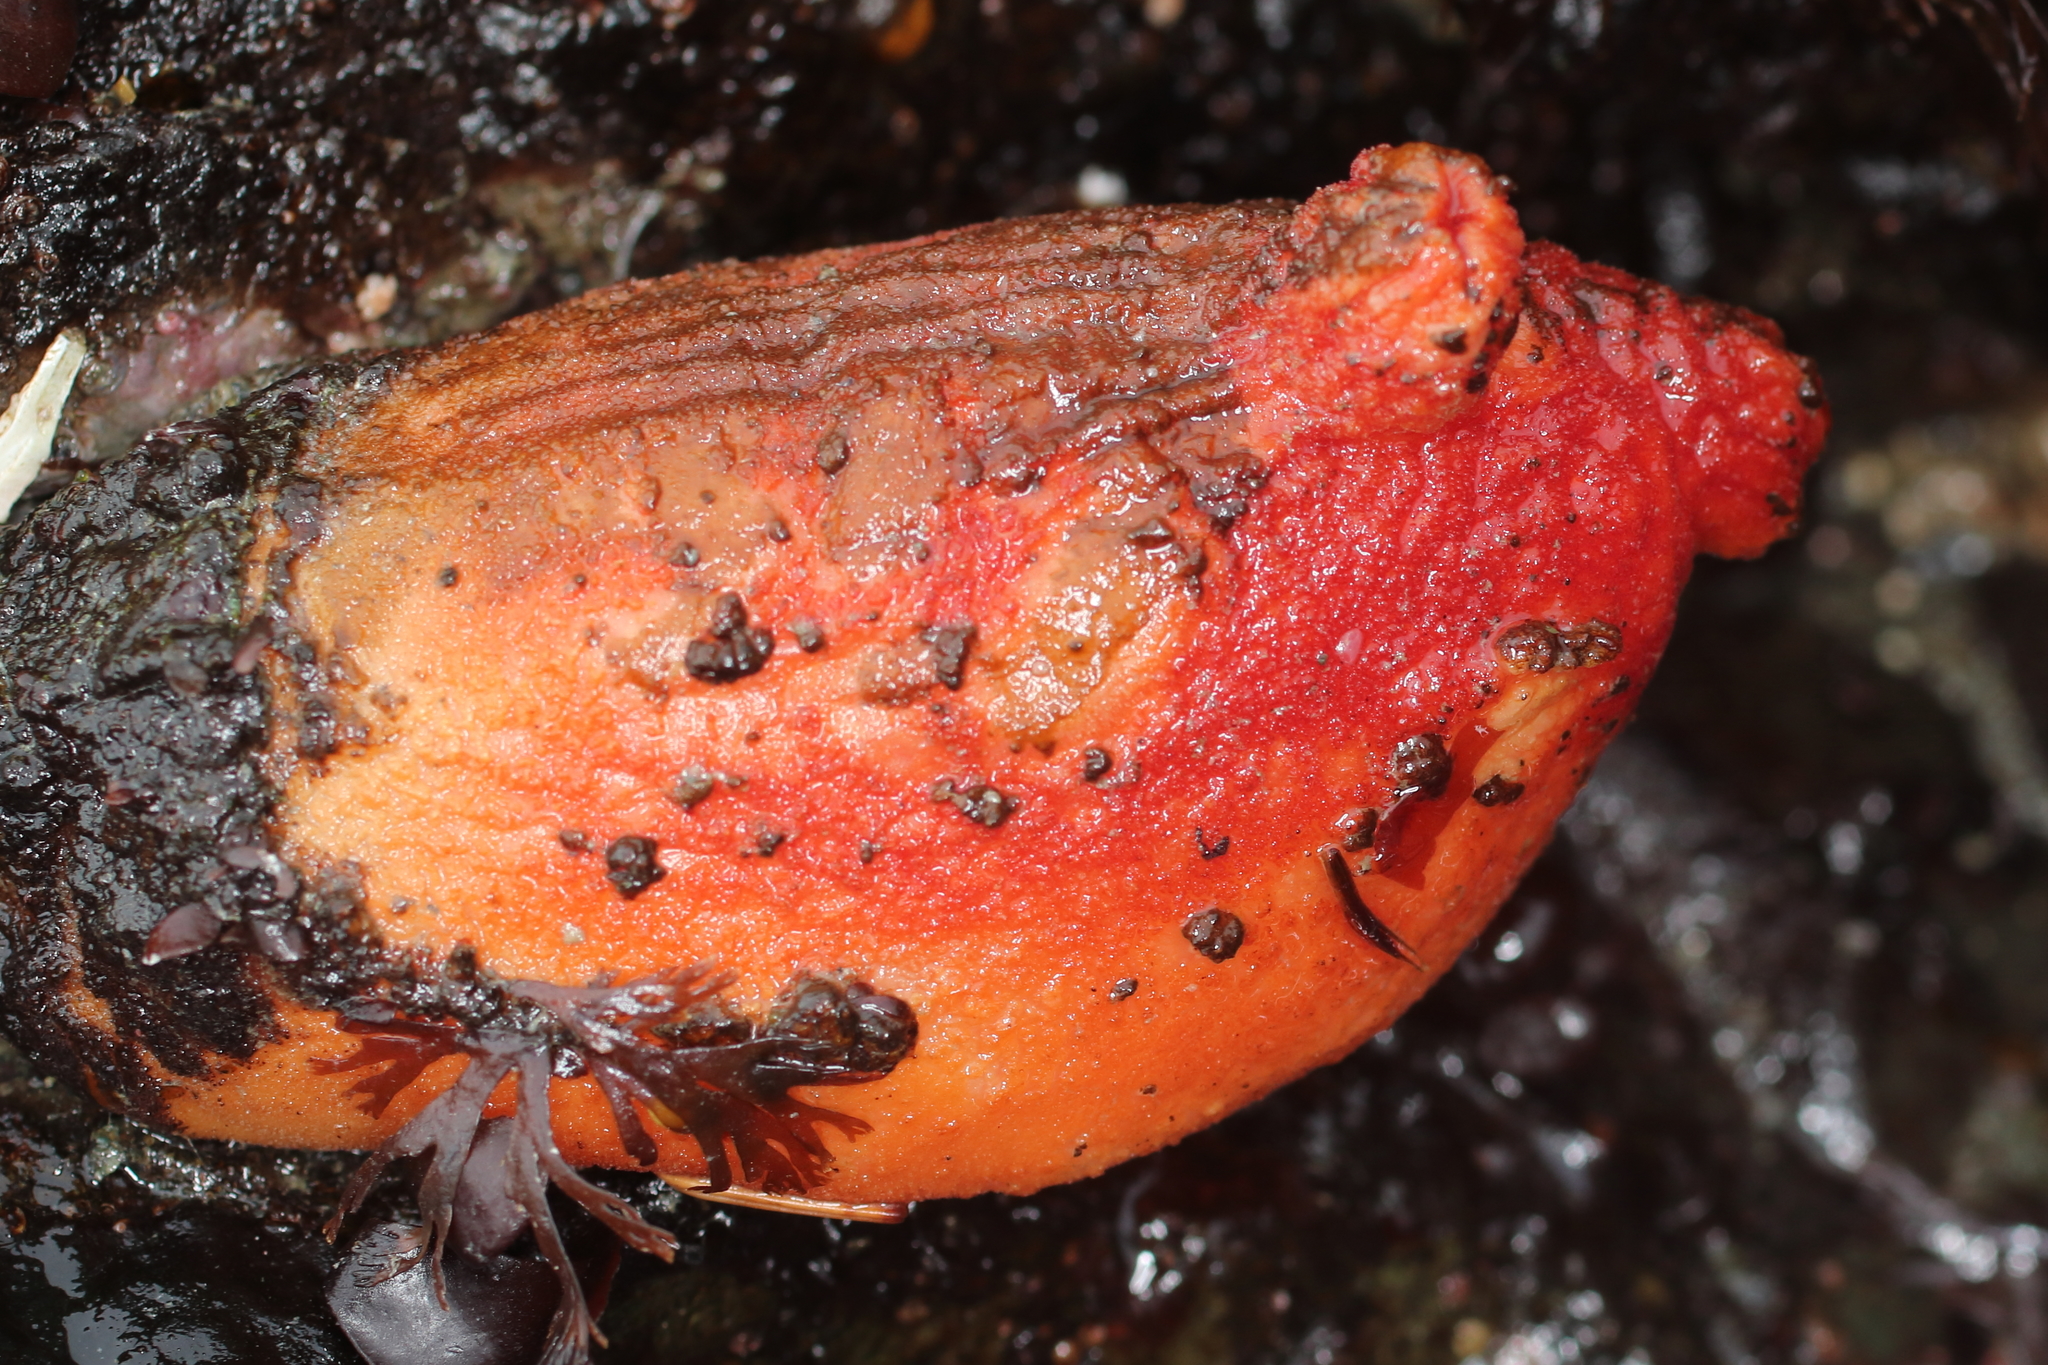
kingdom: Animalia
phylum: Chordata
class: Ascidiacea
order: Stolidobranchia
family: Pyuridae
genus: Halocynthia
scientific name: Halocynthia aurantium
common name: Sea peach
